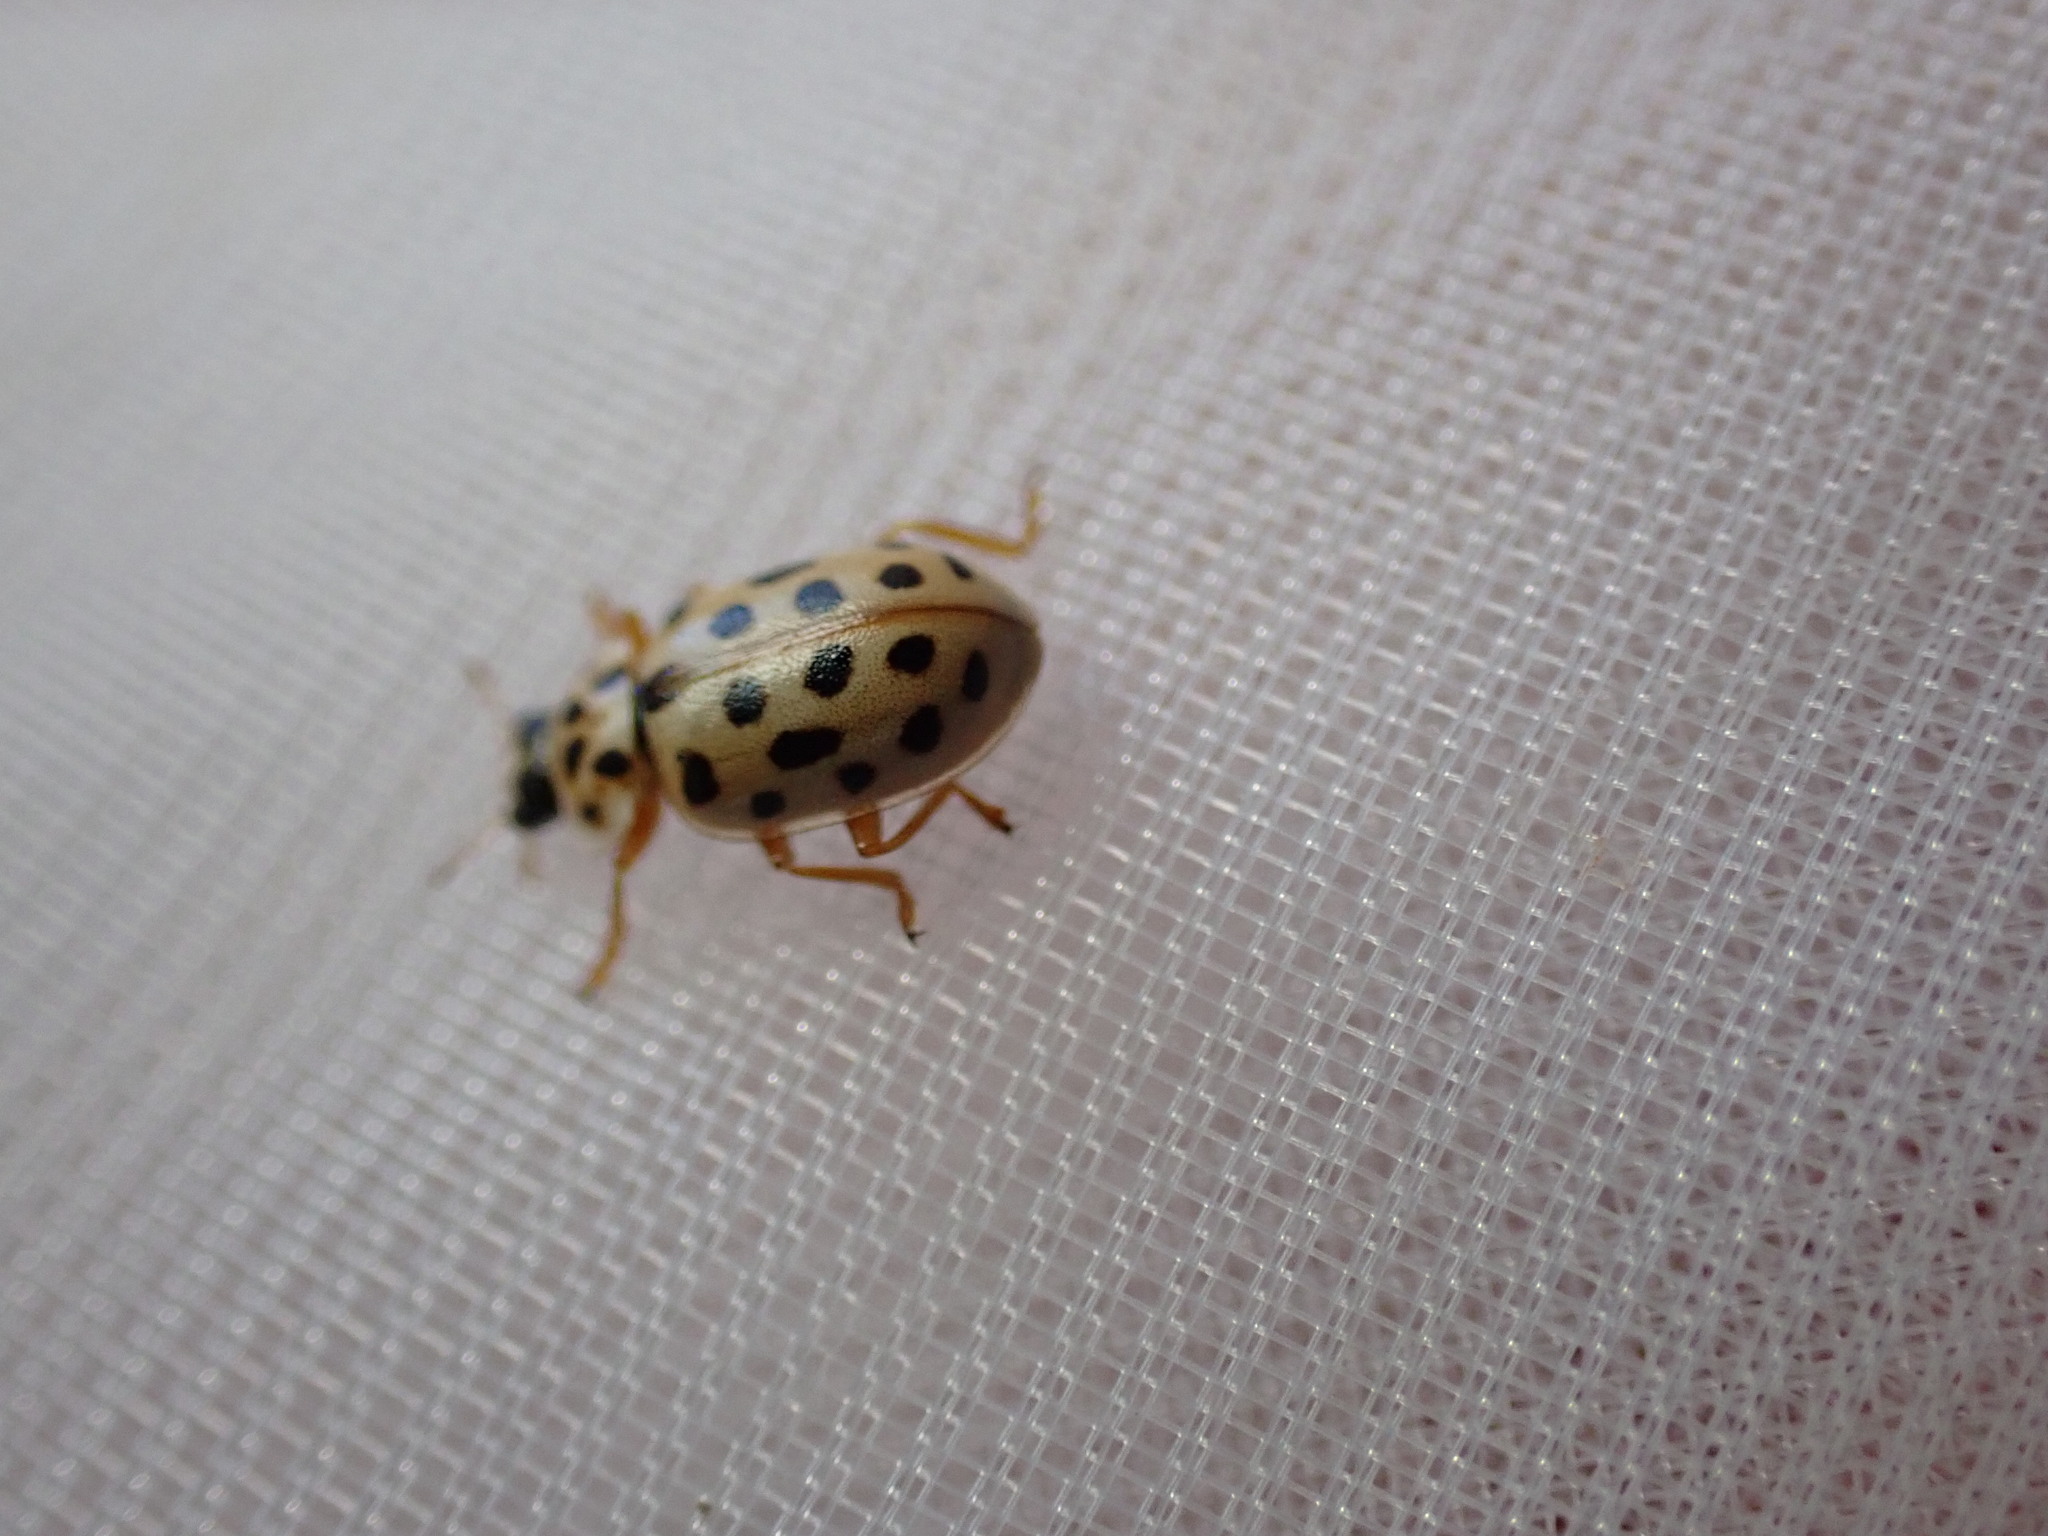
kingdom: Animalia
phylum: Arthropoda
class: Insecta
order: Coleoptera
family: Coccinellidae
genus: Anisosticta
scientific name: Anisosticta novemdecimpunctata
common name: Water ladybird
